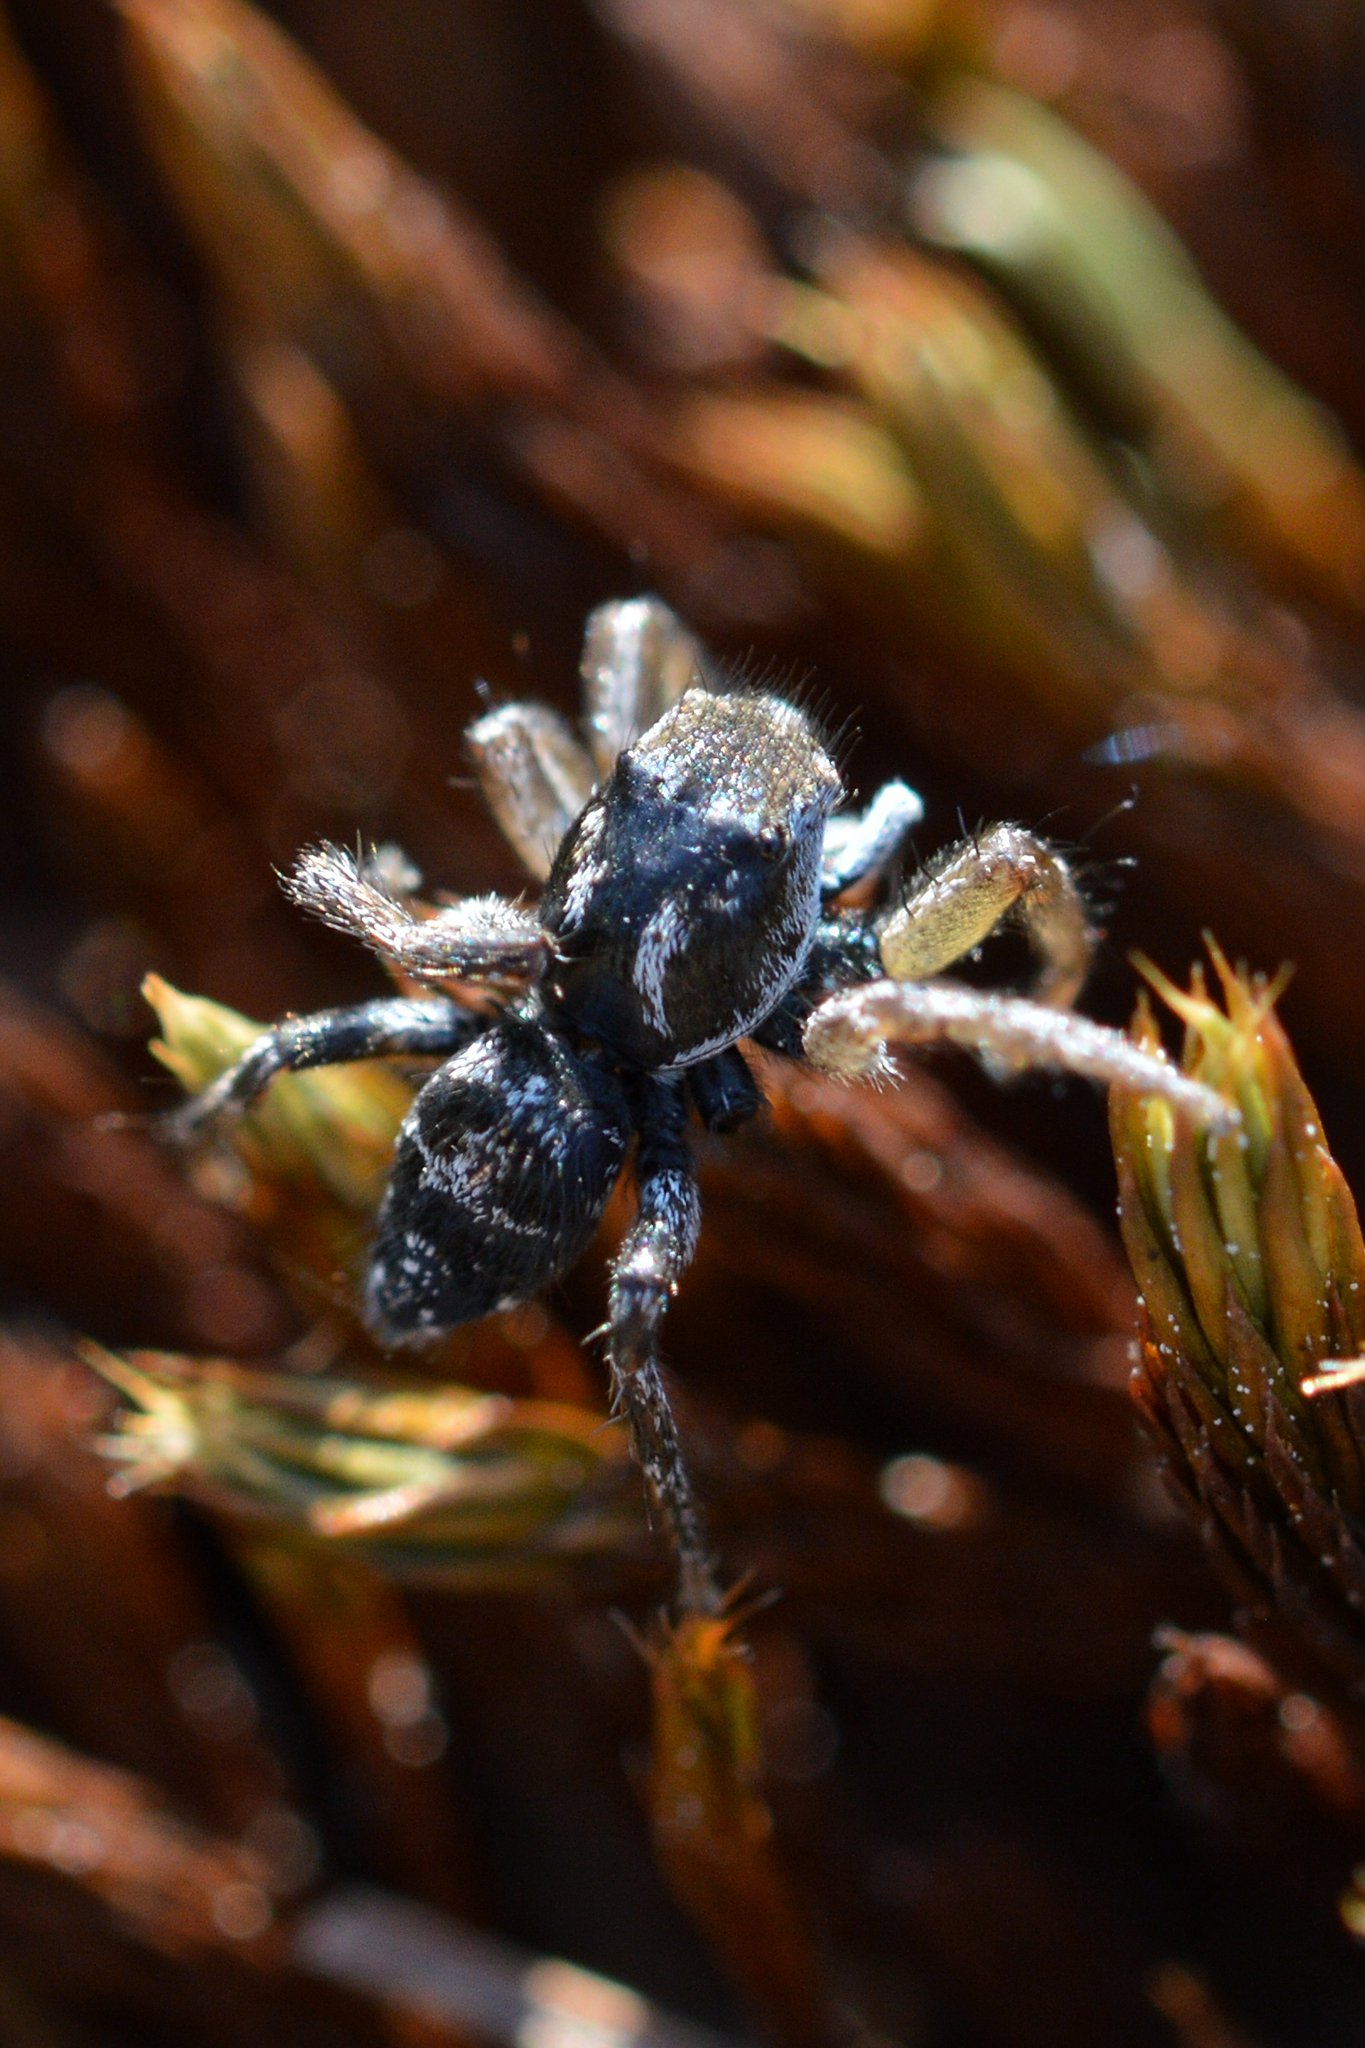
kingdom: Animalia
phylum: Arthropoda
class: Arachnida
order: Araneae
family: Salticidae
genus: Habronattus
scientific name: Habronattus borealis
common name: Boreal paradise spider
